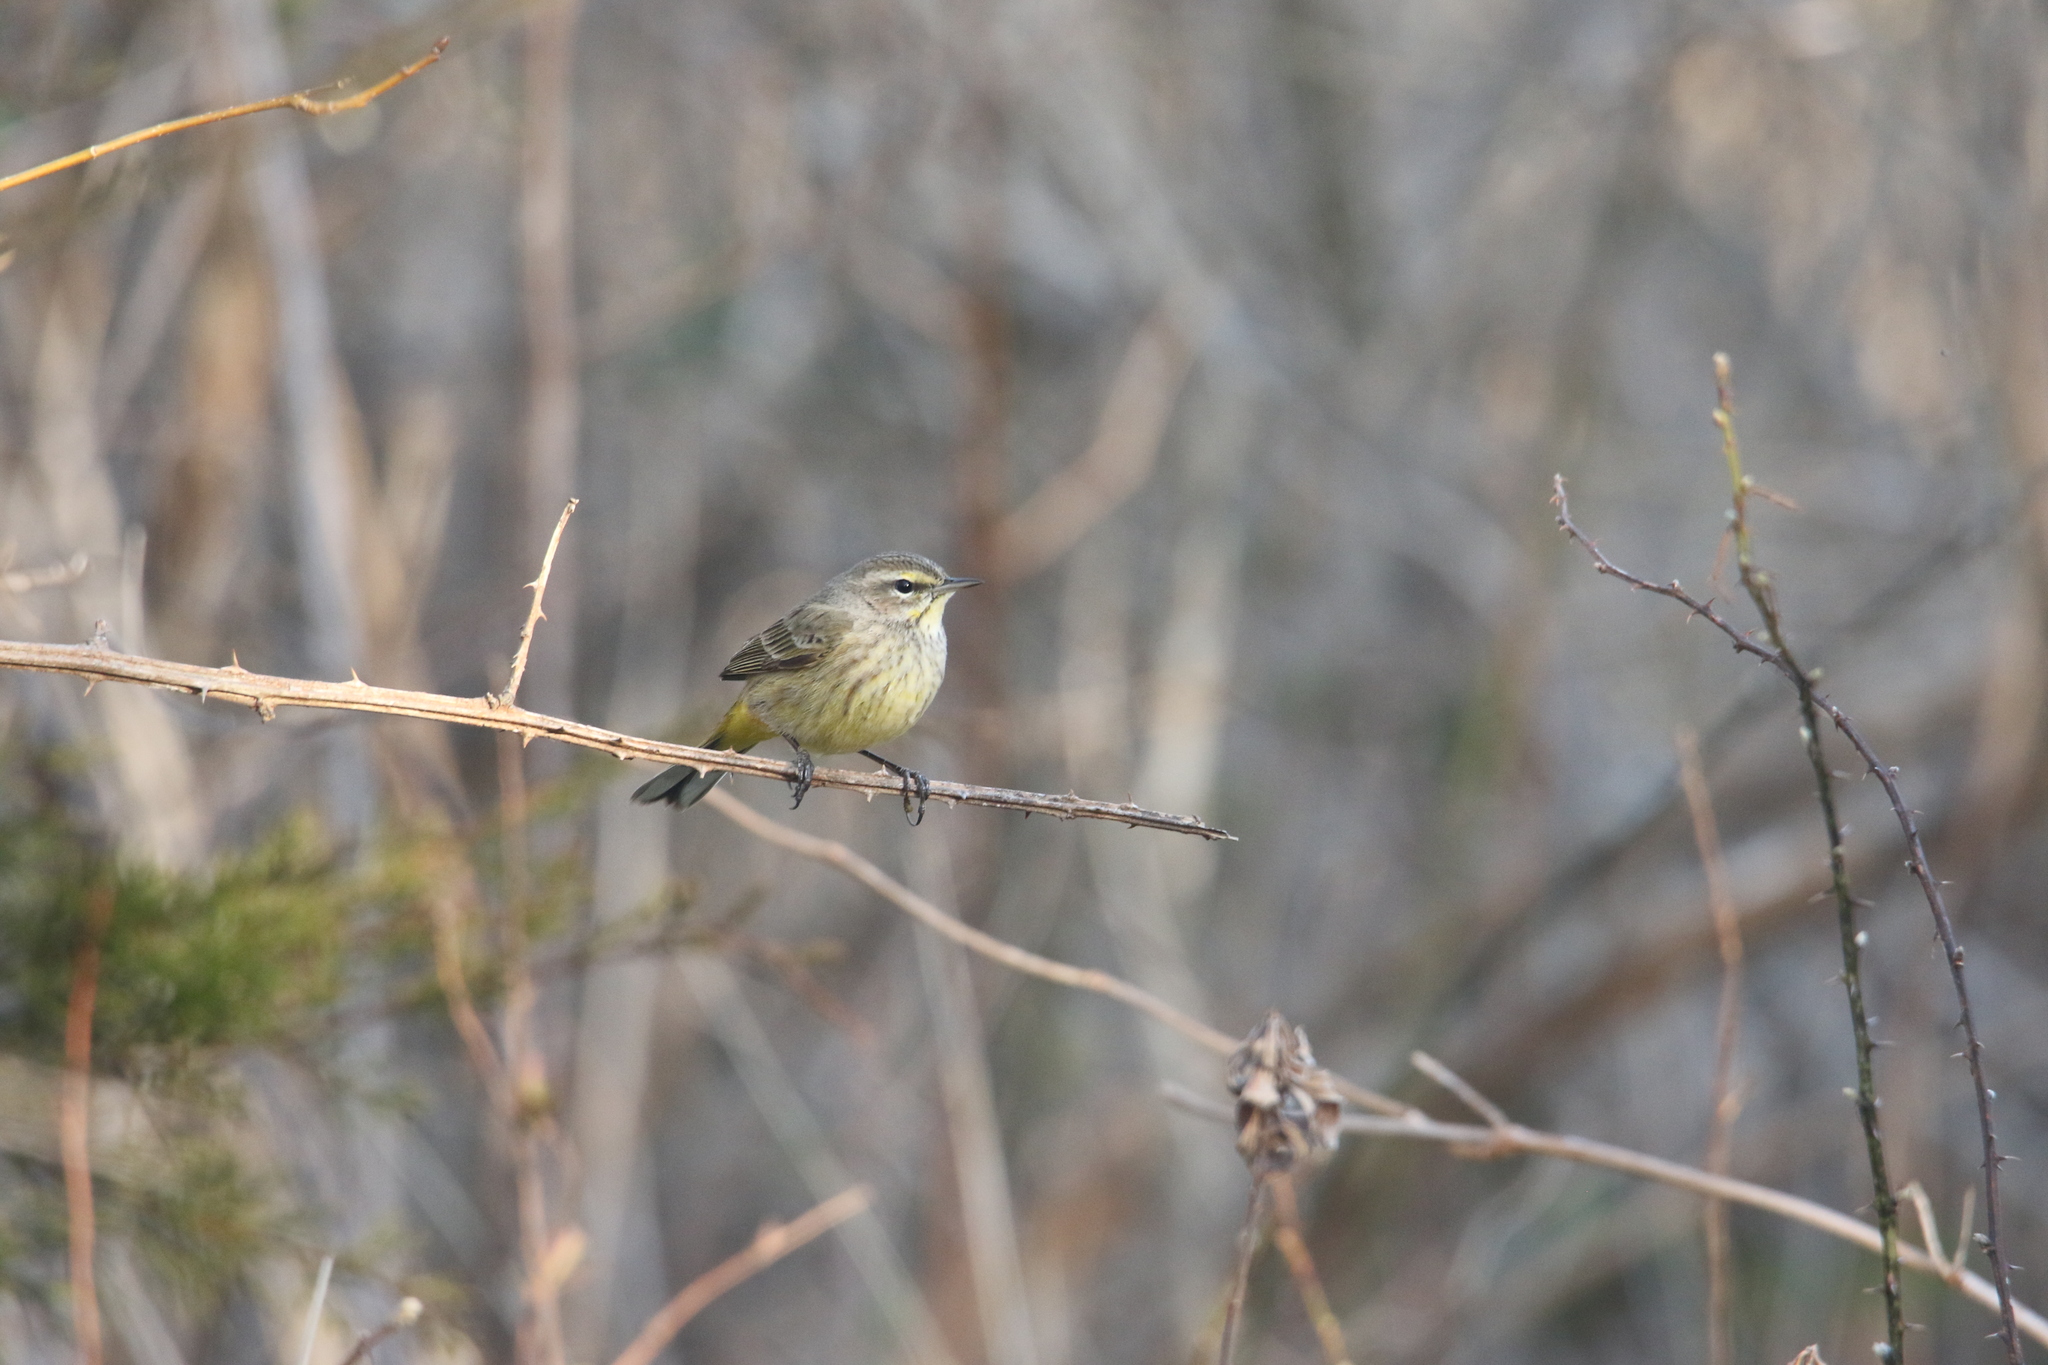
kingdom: Animalia
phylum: Chordata
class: Aves
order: Passeriformes
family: Parulidae
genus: Setophaga
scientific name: Setophaga palmarum
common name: Palm warbler
